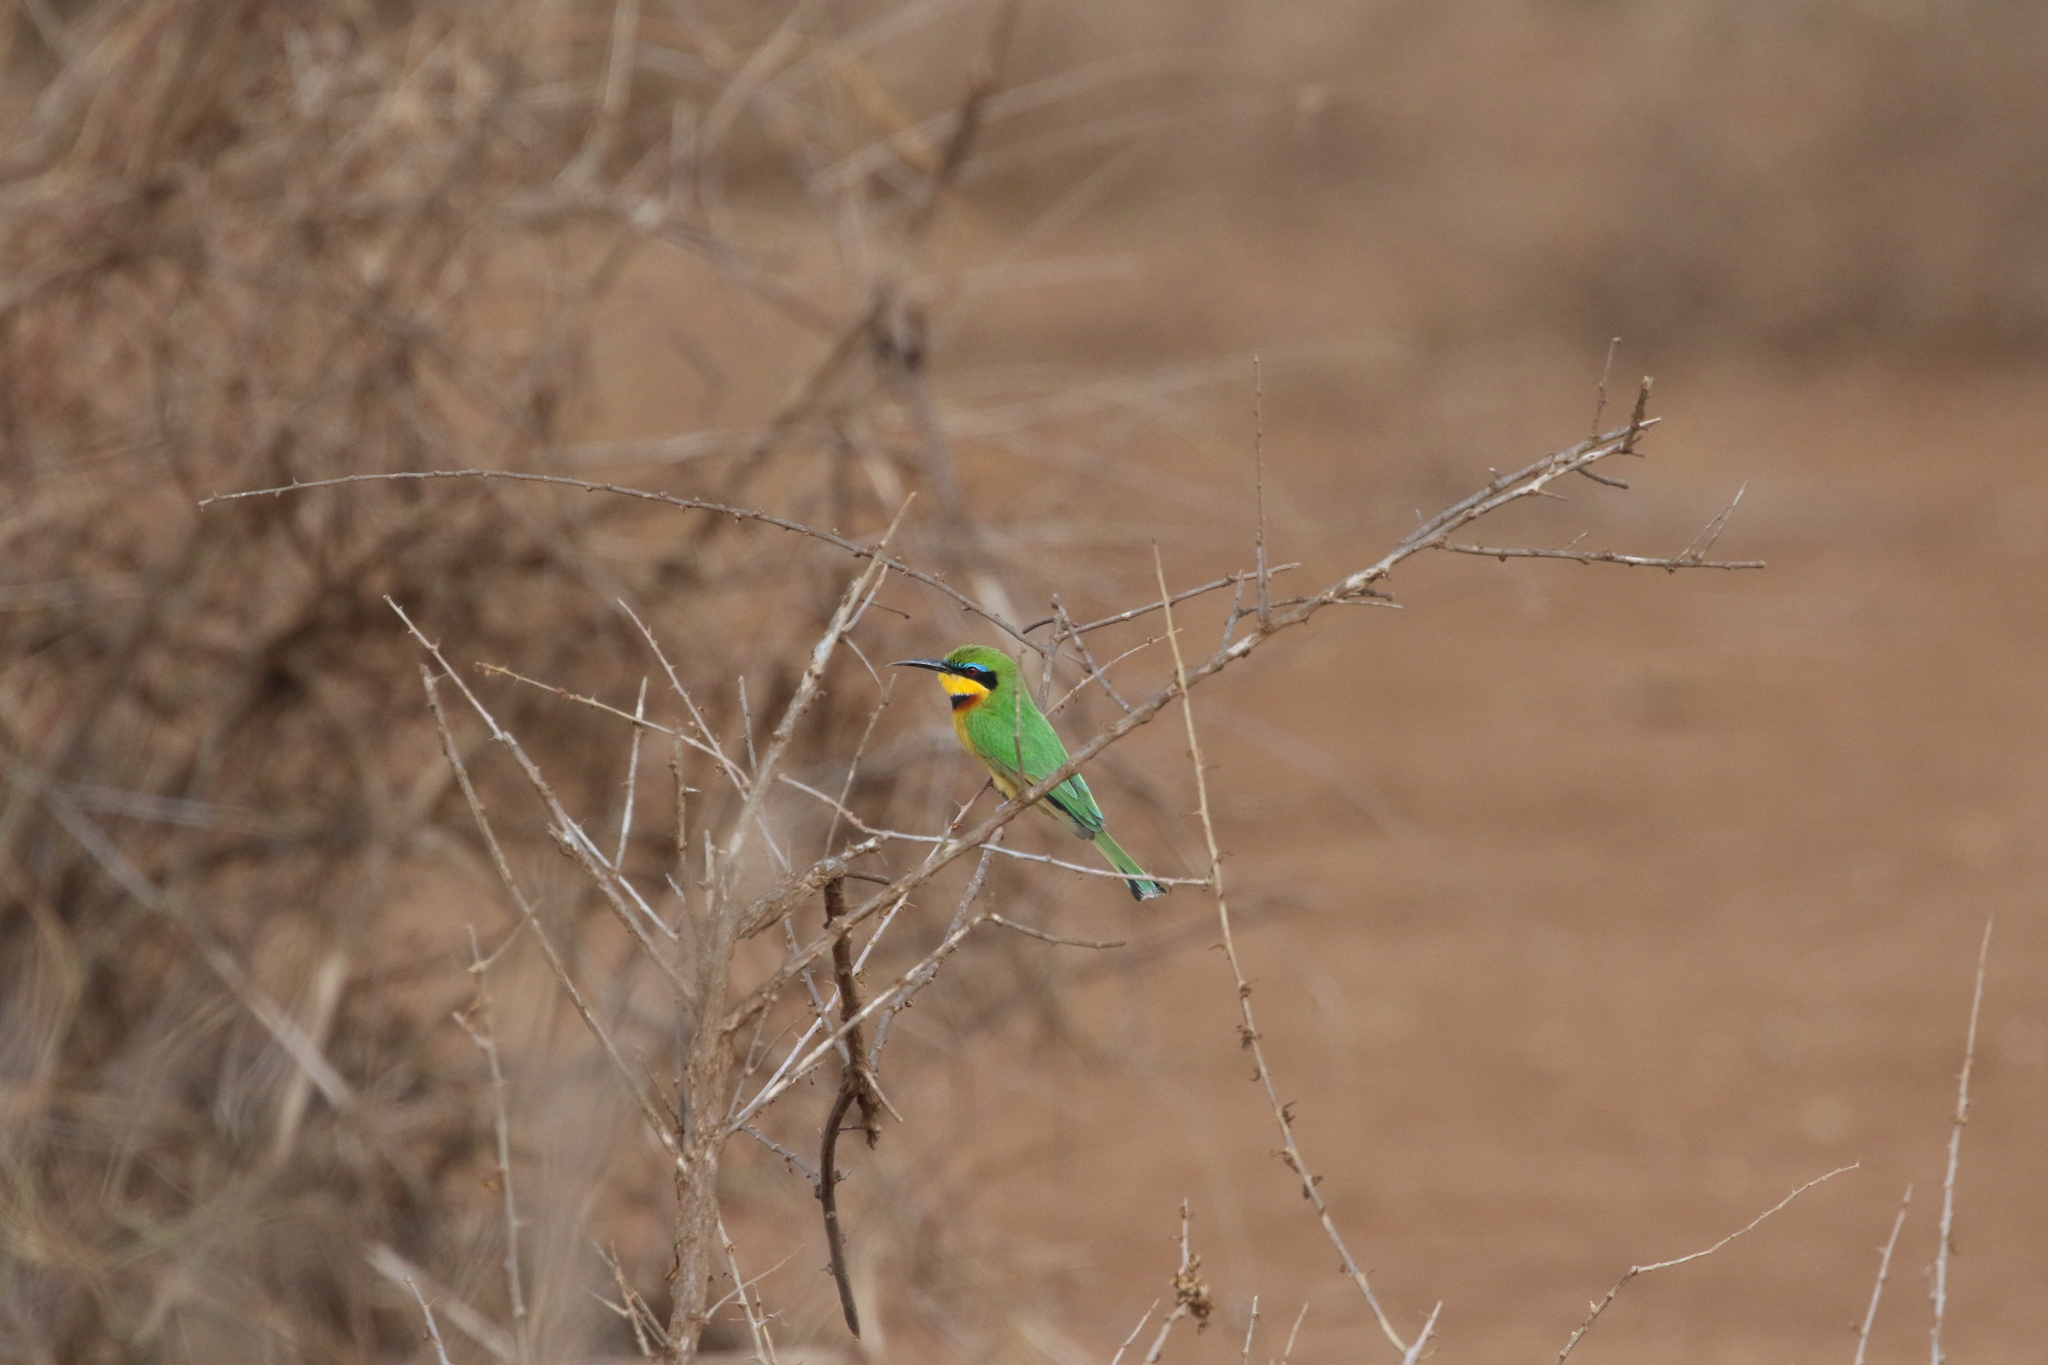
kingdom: Animalia
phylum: Chordata
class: Aves
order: Coraciiformes
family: Meropidae
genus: Merops
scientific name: Merops pusillus
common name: Little bee-eater
